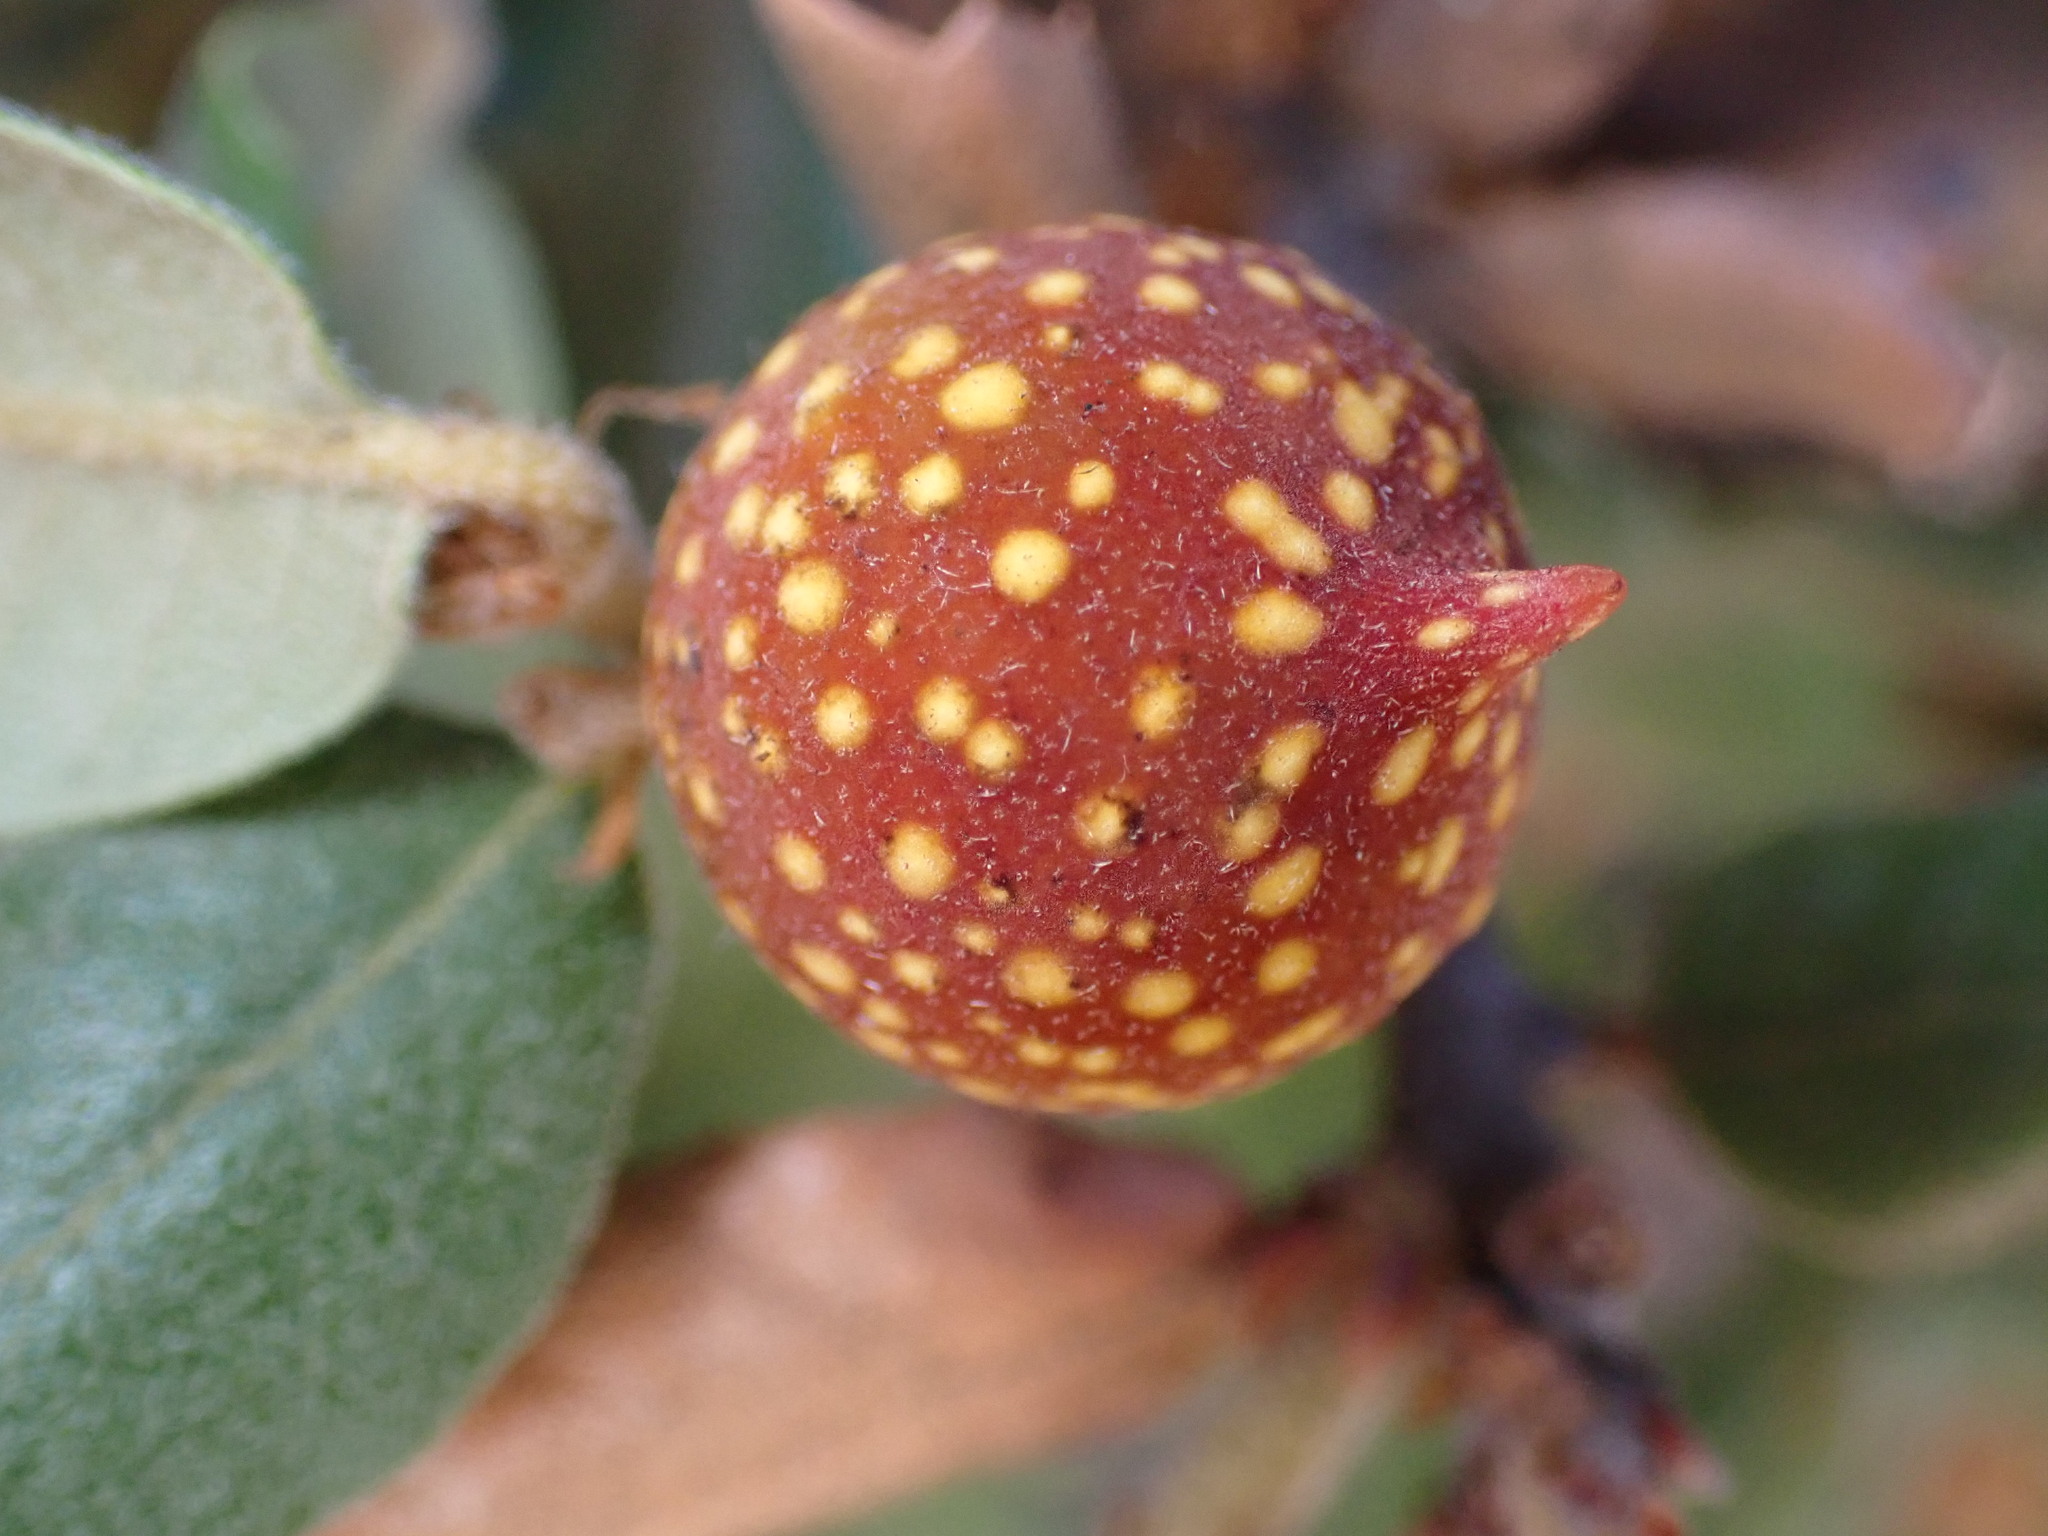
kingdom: Animalia
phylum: Arthropoda
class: Insecta
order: Hymenoptera
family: Cynipidae
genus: Burnettweldia
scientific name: Burnettweldia
